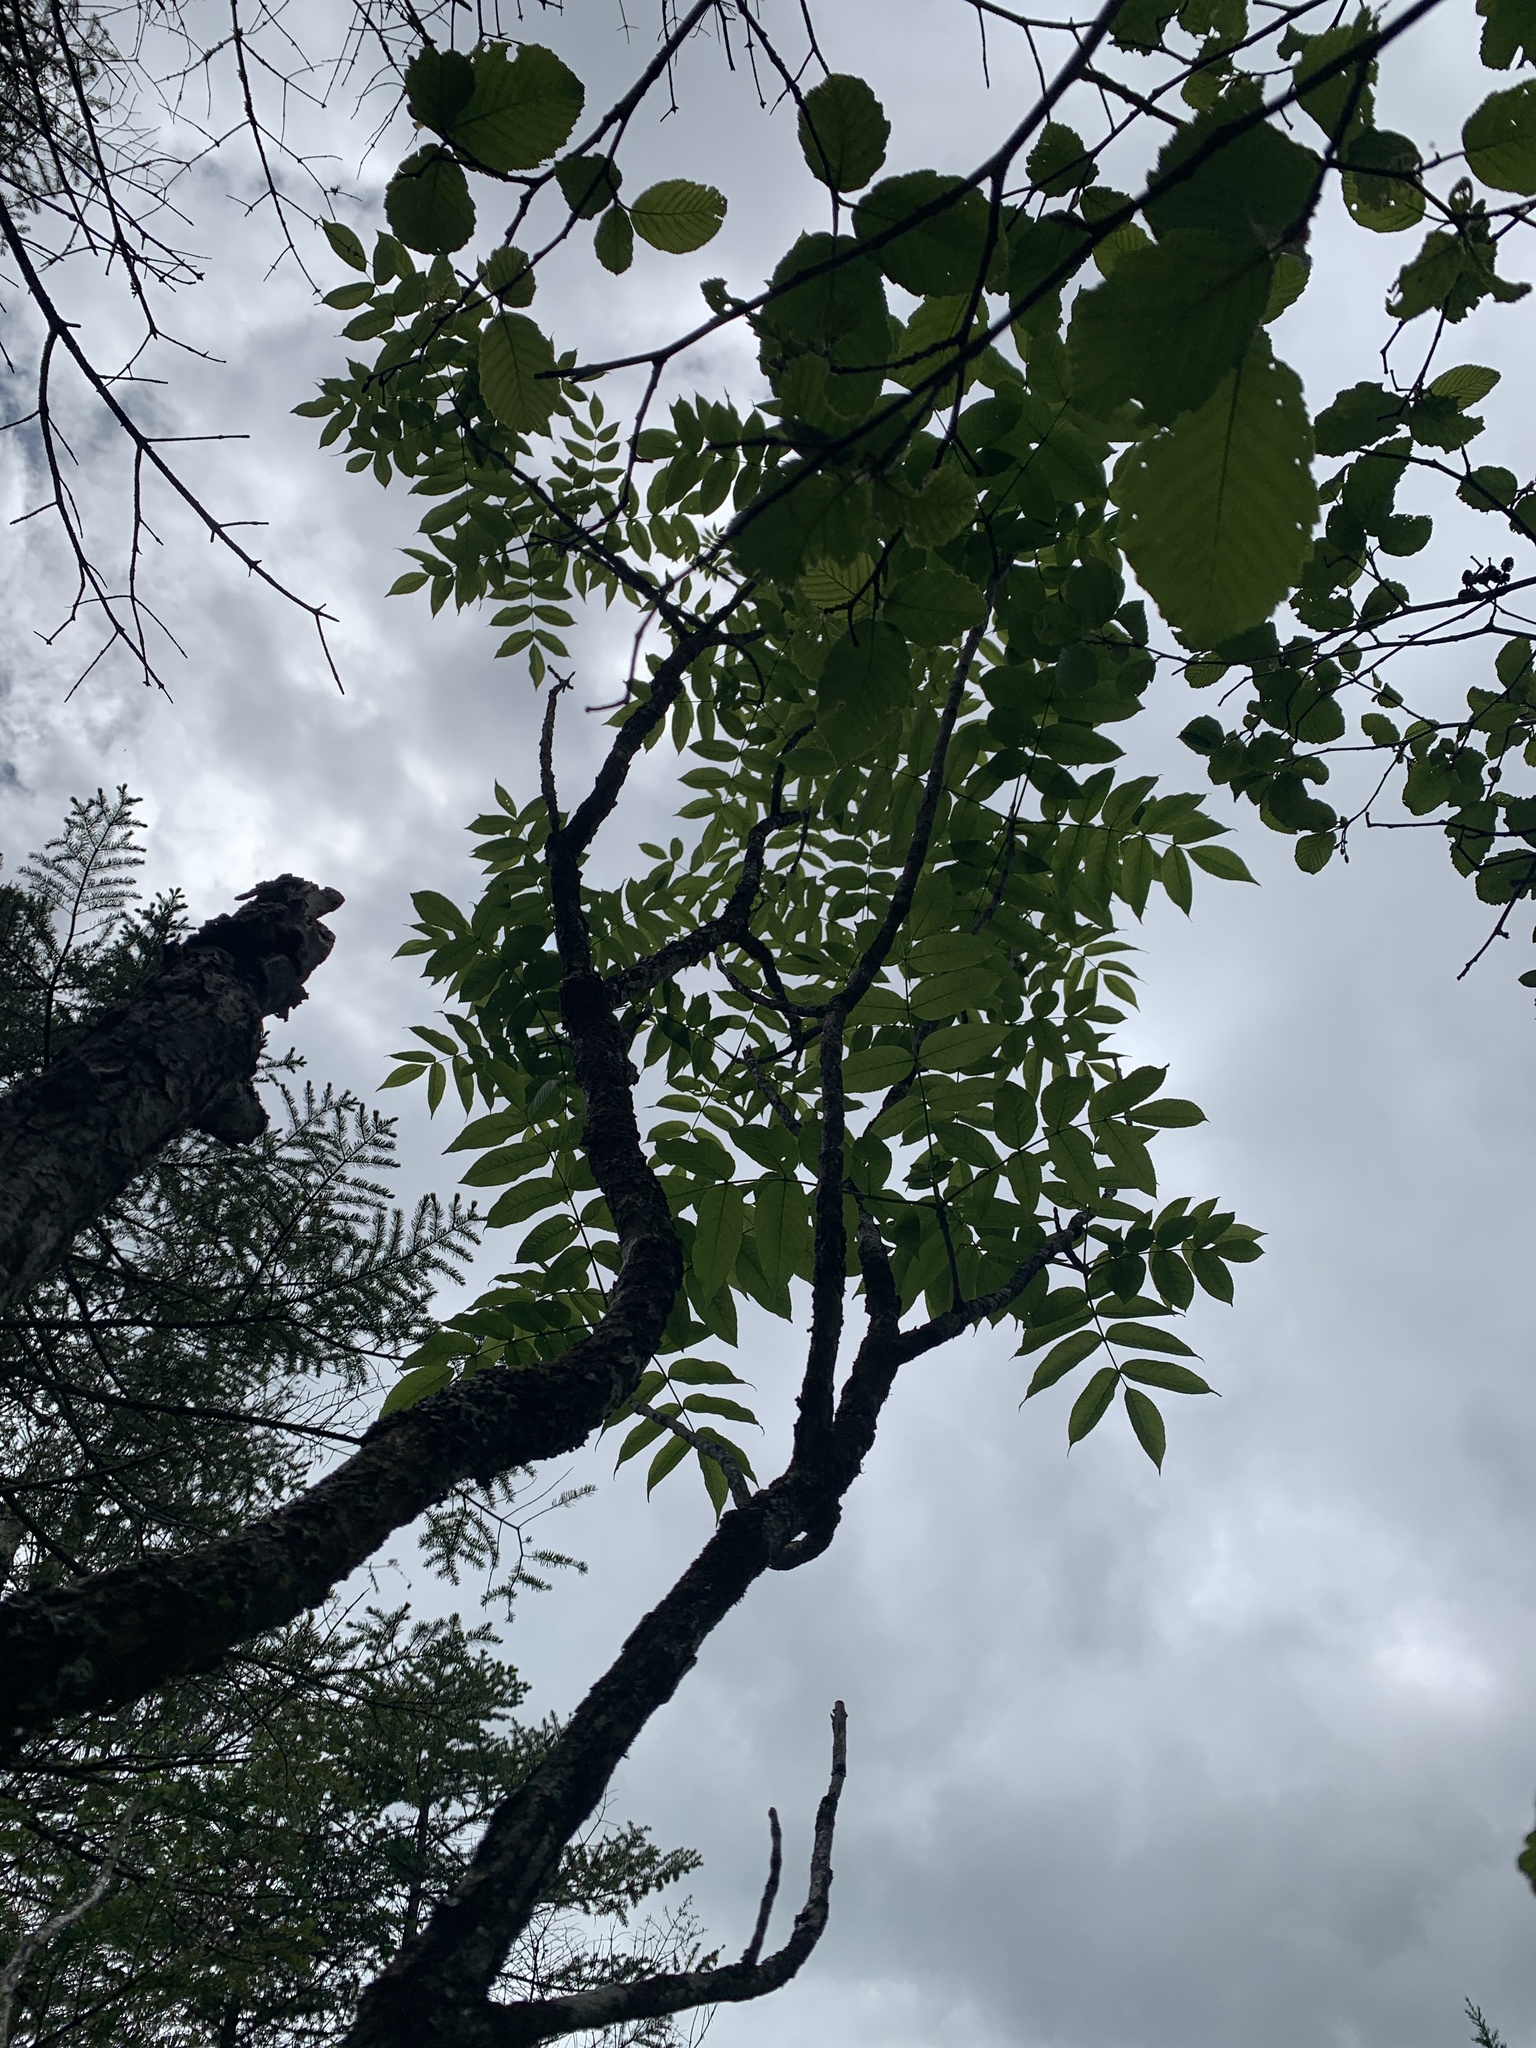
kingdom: Plantae
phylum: Tracheophyta
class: Magnoliopsida
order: Lamiales
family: Oleaceae
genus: Fraxinus
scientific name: Fraxinus nigra
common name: Black ash
